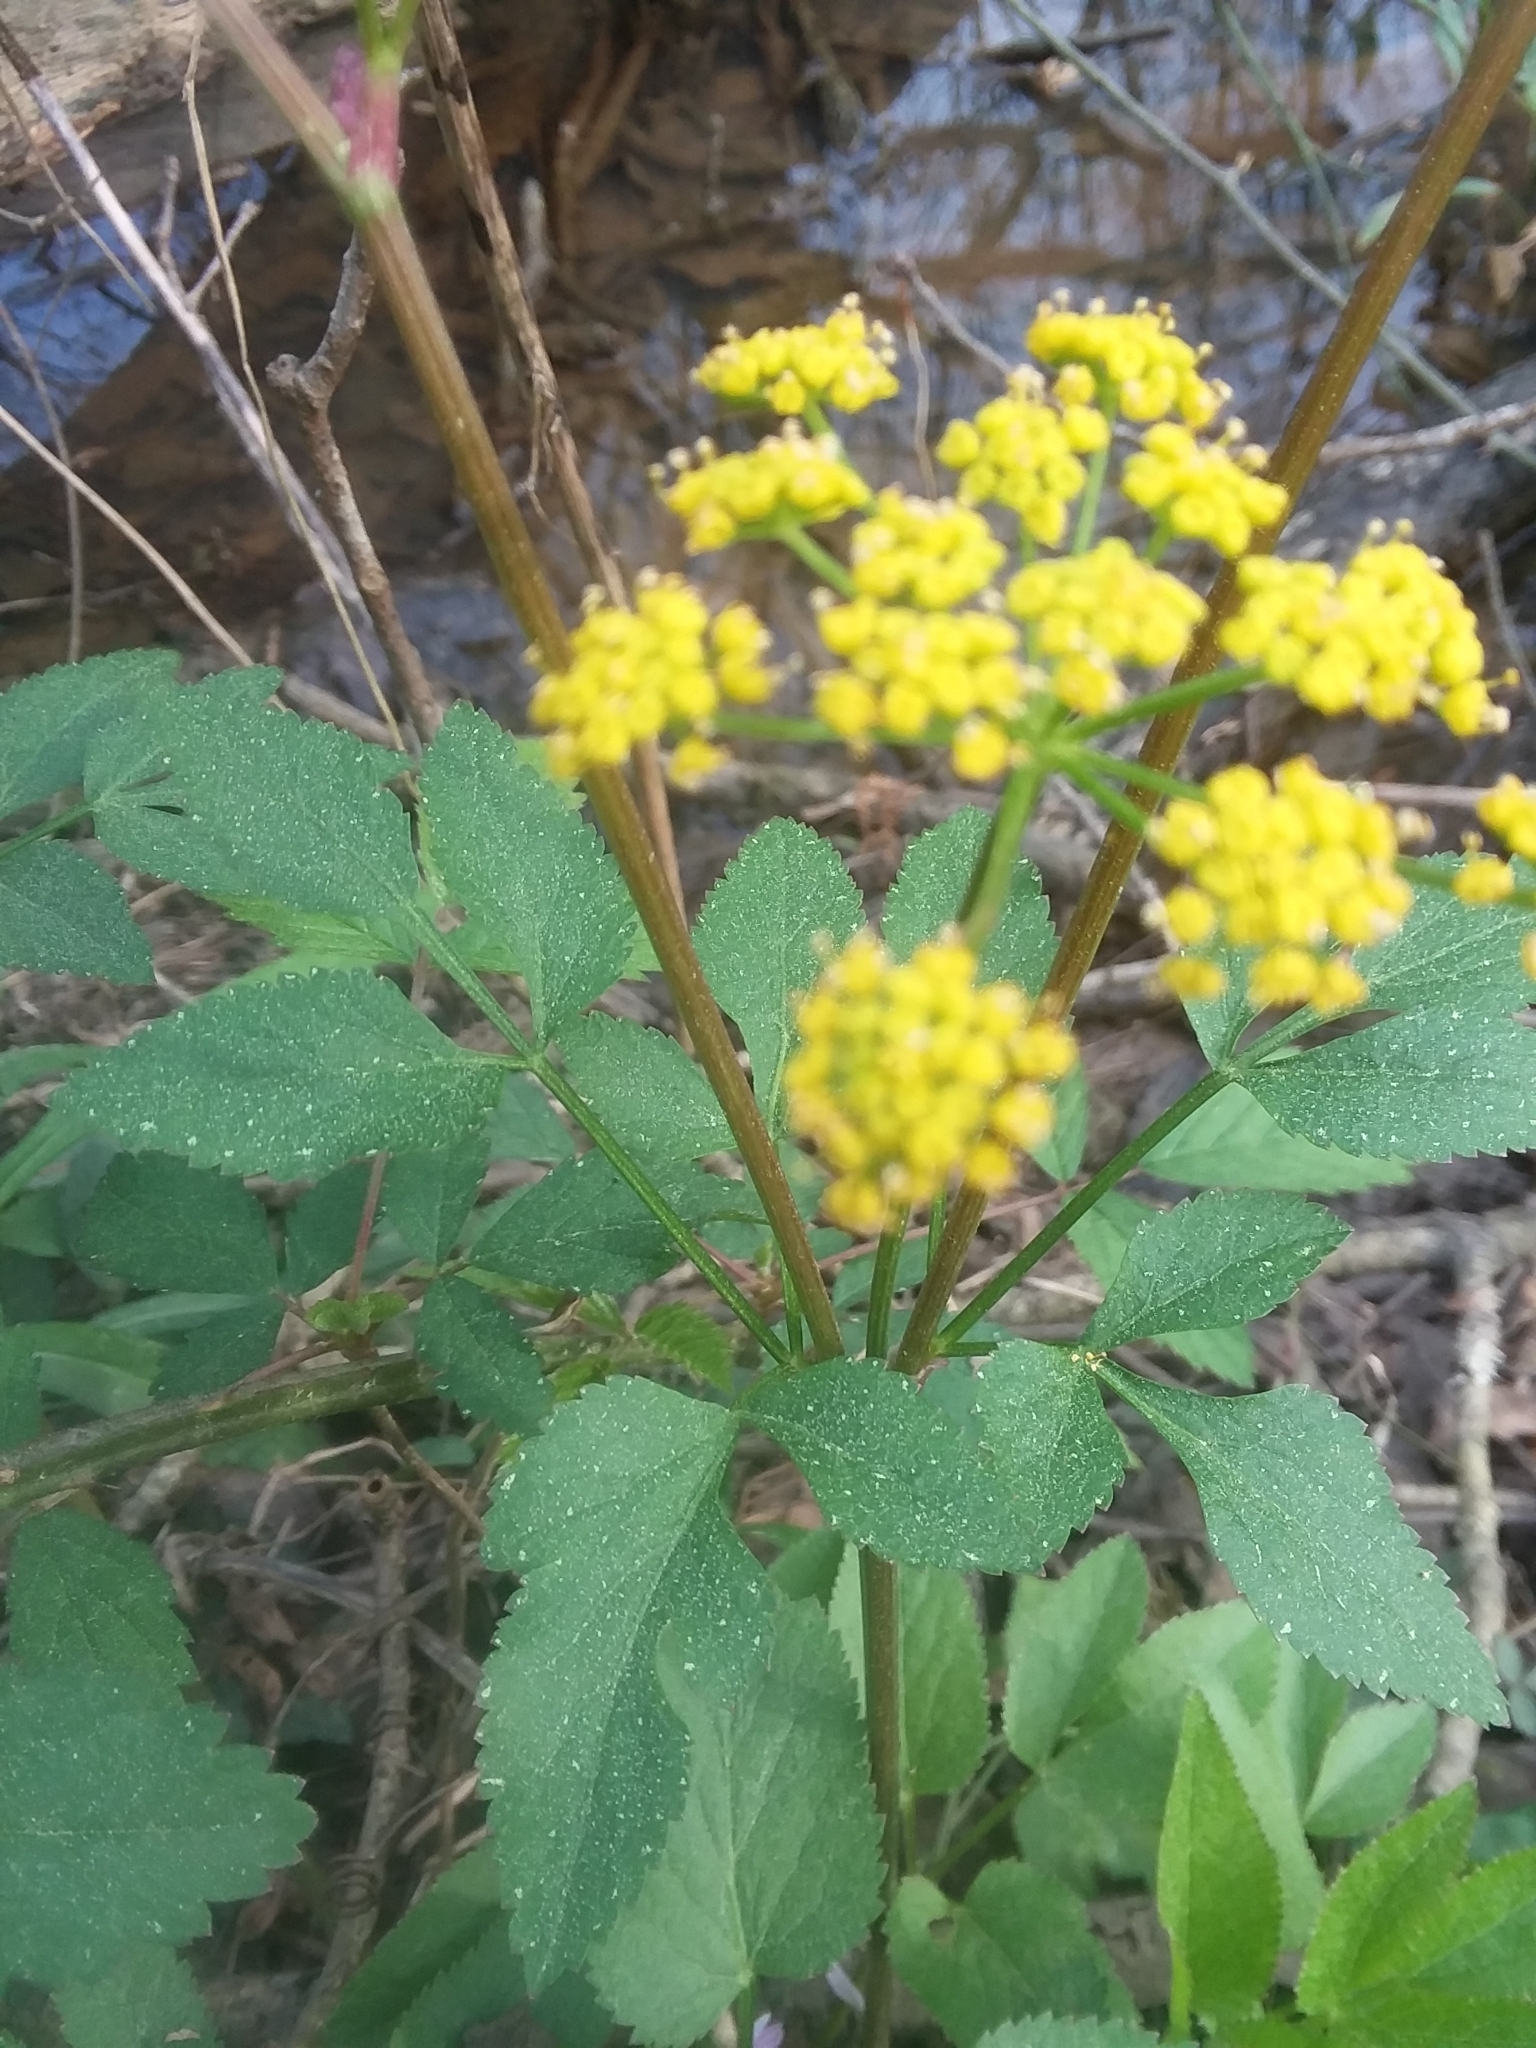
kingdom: Plantae
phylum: Tracheophyta
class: Magnoliopsida
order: Apiales
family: Apiaceae
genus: Zizia
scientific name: Zizia aurea
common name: Golden alexanders
